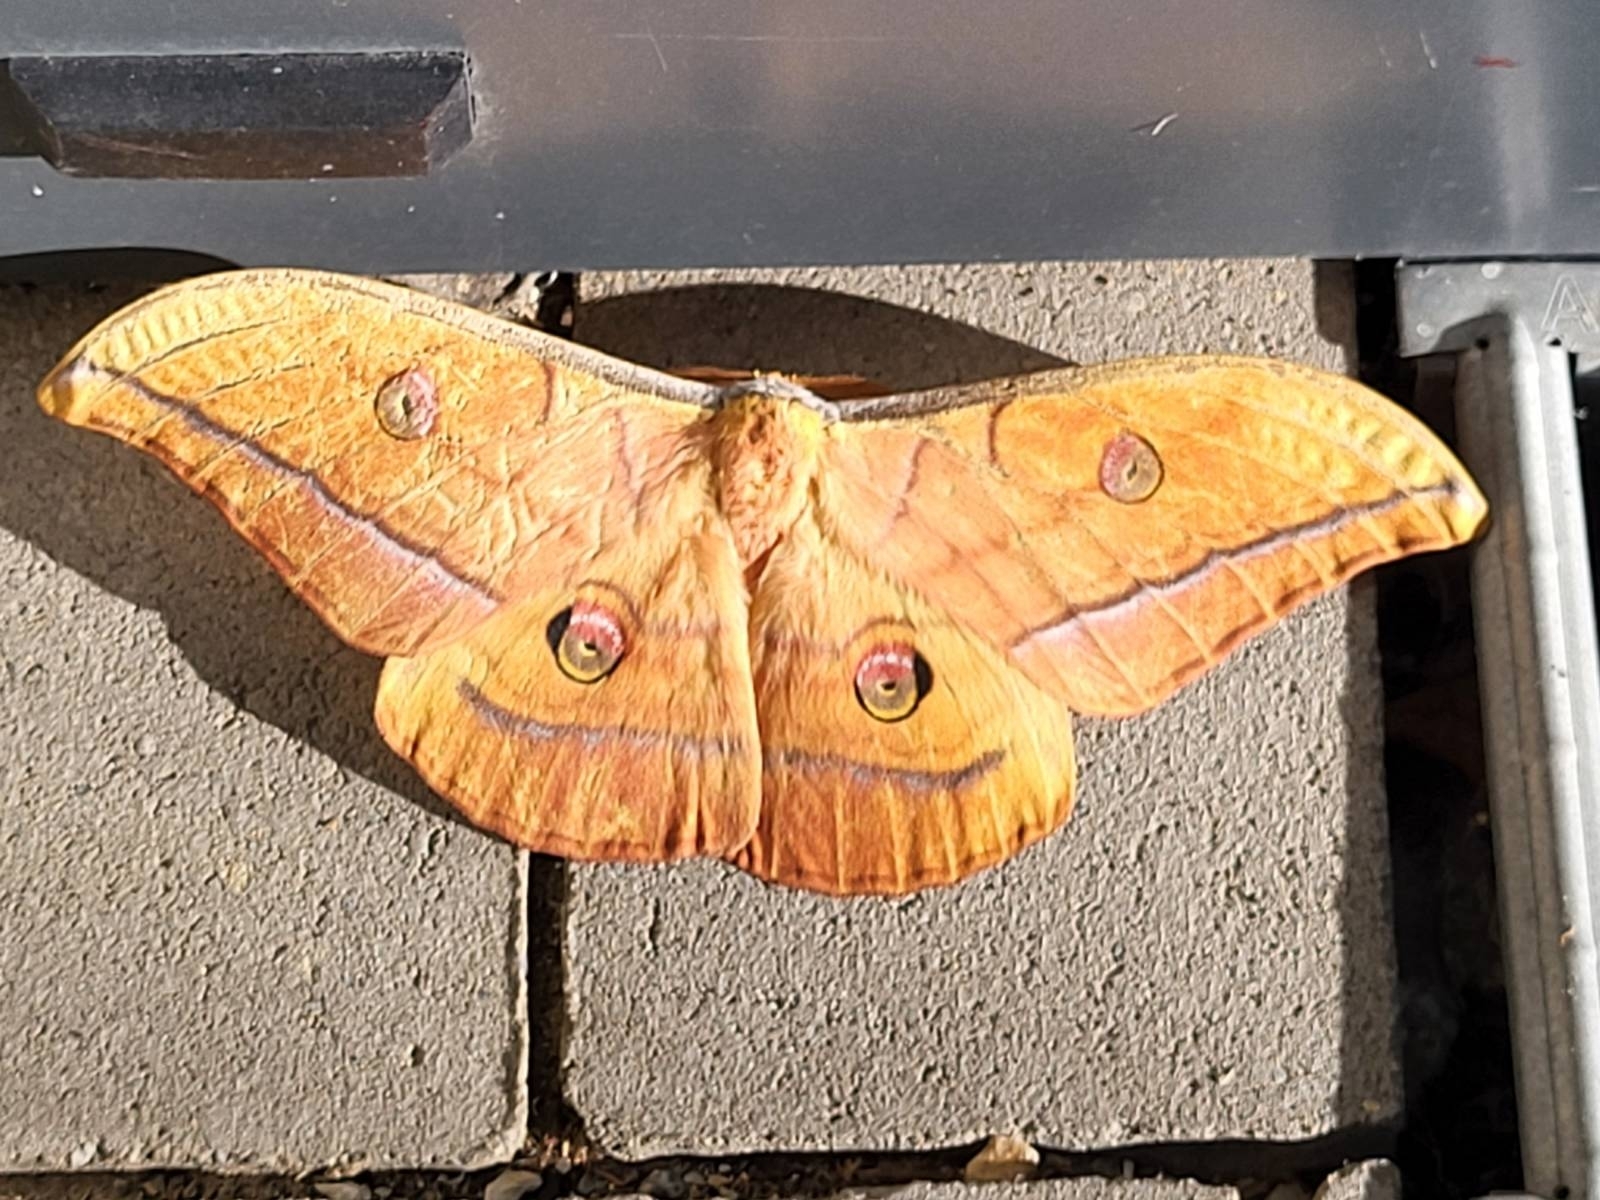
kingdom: Animalia
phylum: Arthropoda
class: Insecta
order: Lepidoptera
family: Saturniidae
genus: Antheraea
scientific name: Antheraea yamamai
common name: Japanese oak silk moth
